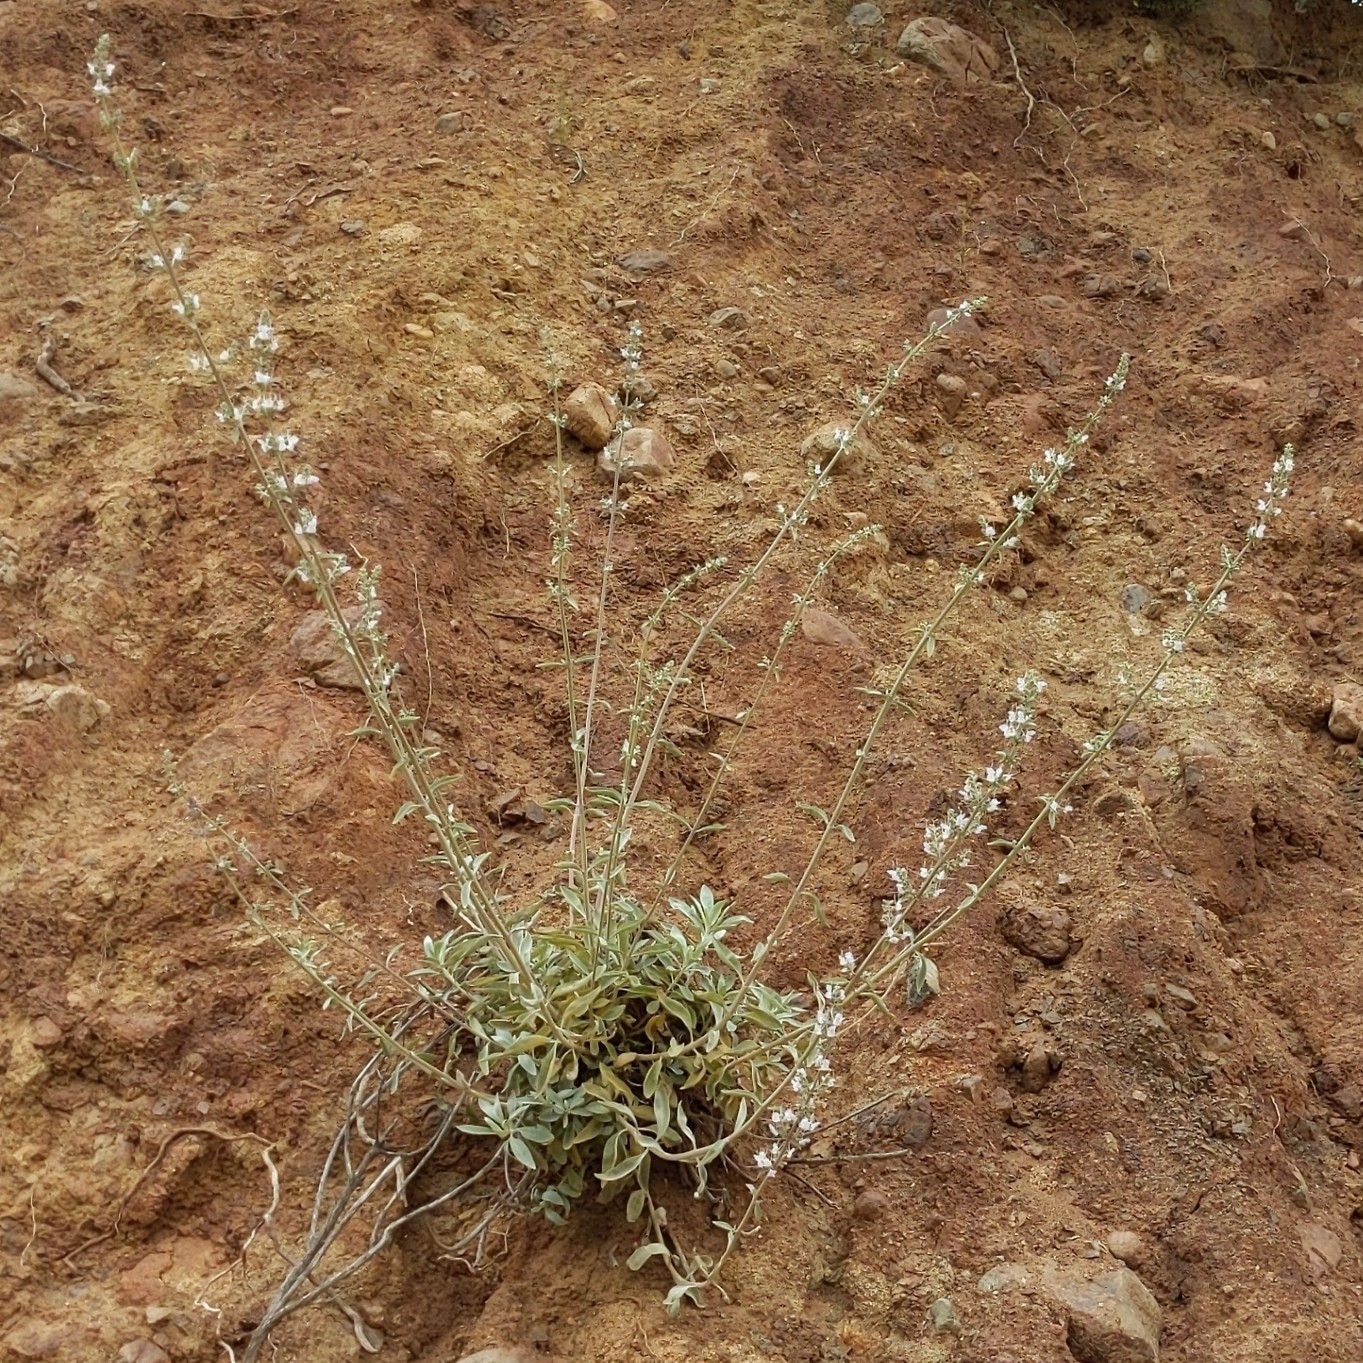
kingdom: Plantae
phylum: Tracheophyta
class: Magnoliopsida
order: Lamiales
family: Lamiaceae
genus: Salvia
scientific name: Salvia apiana
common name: White sage
